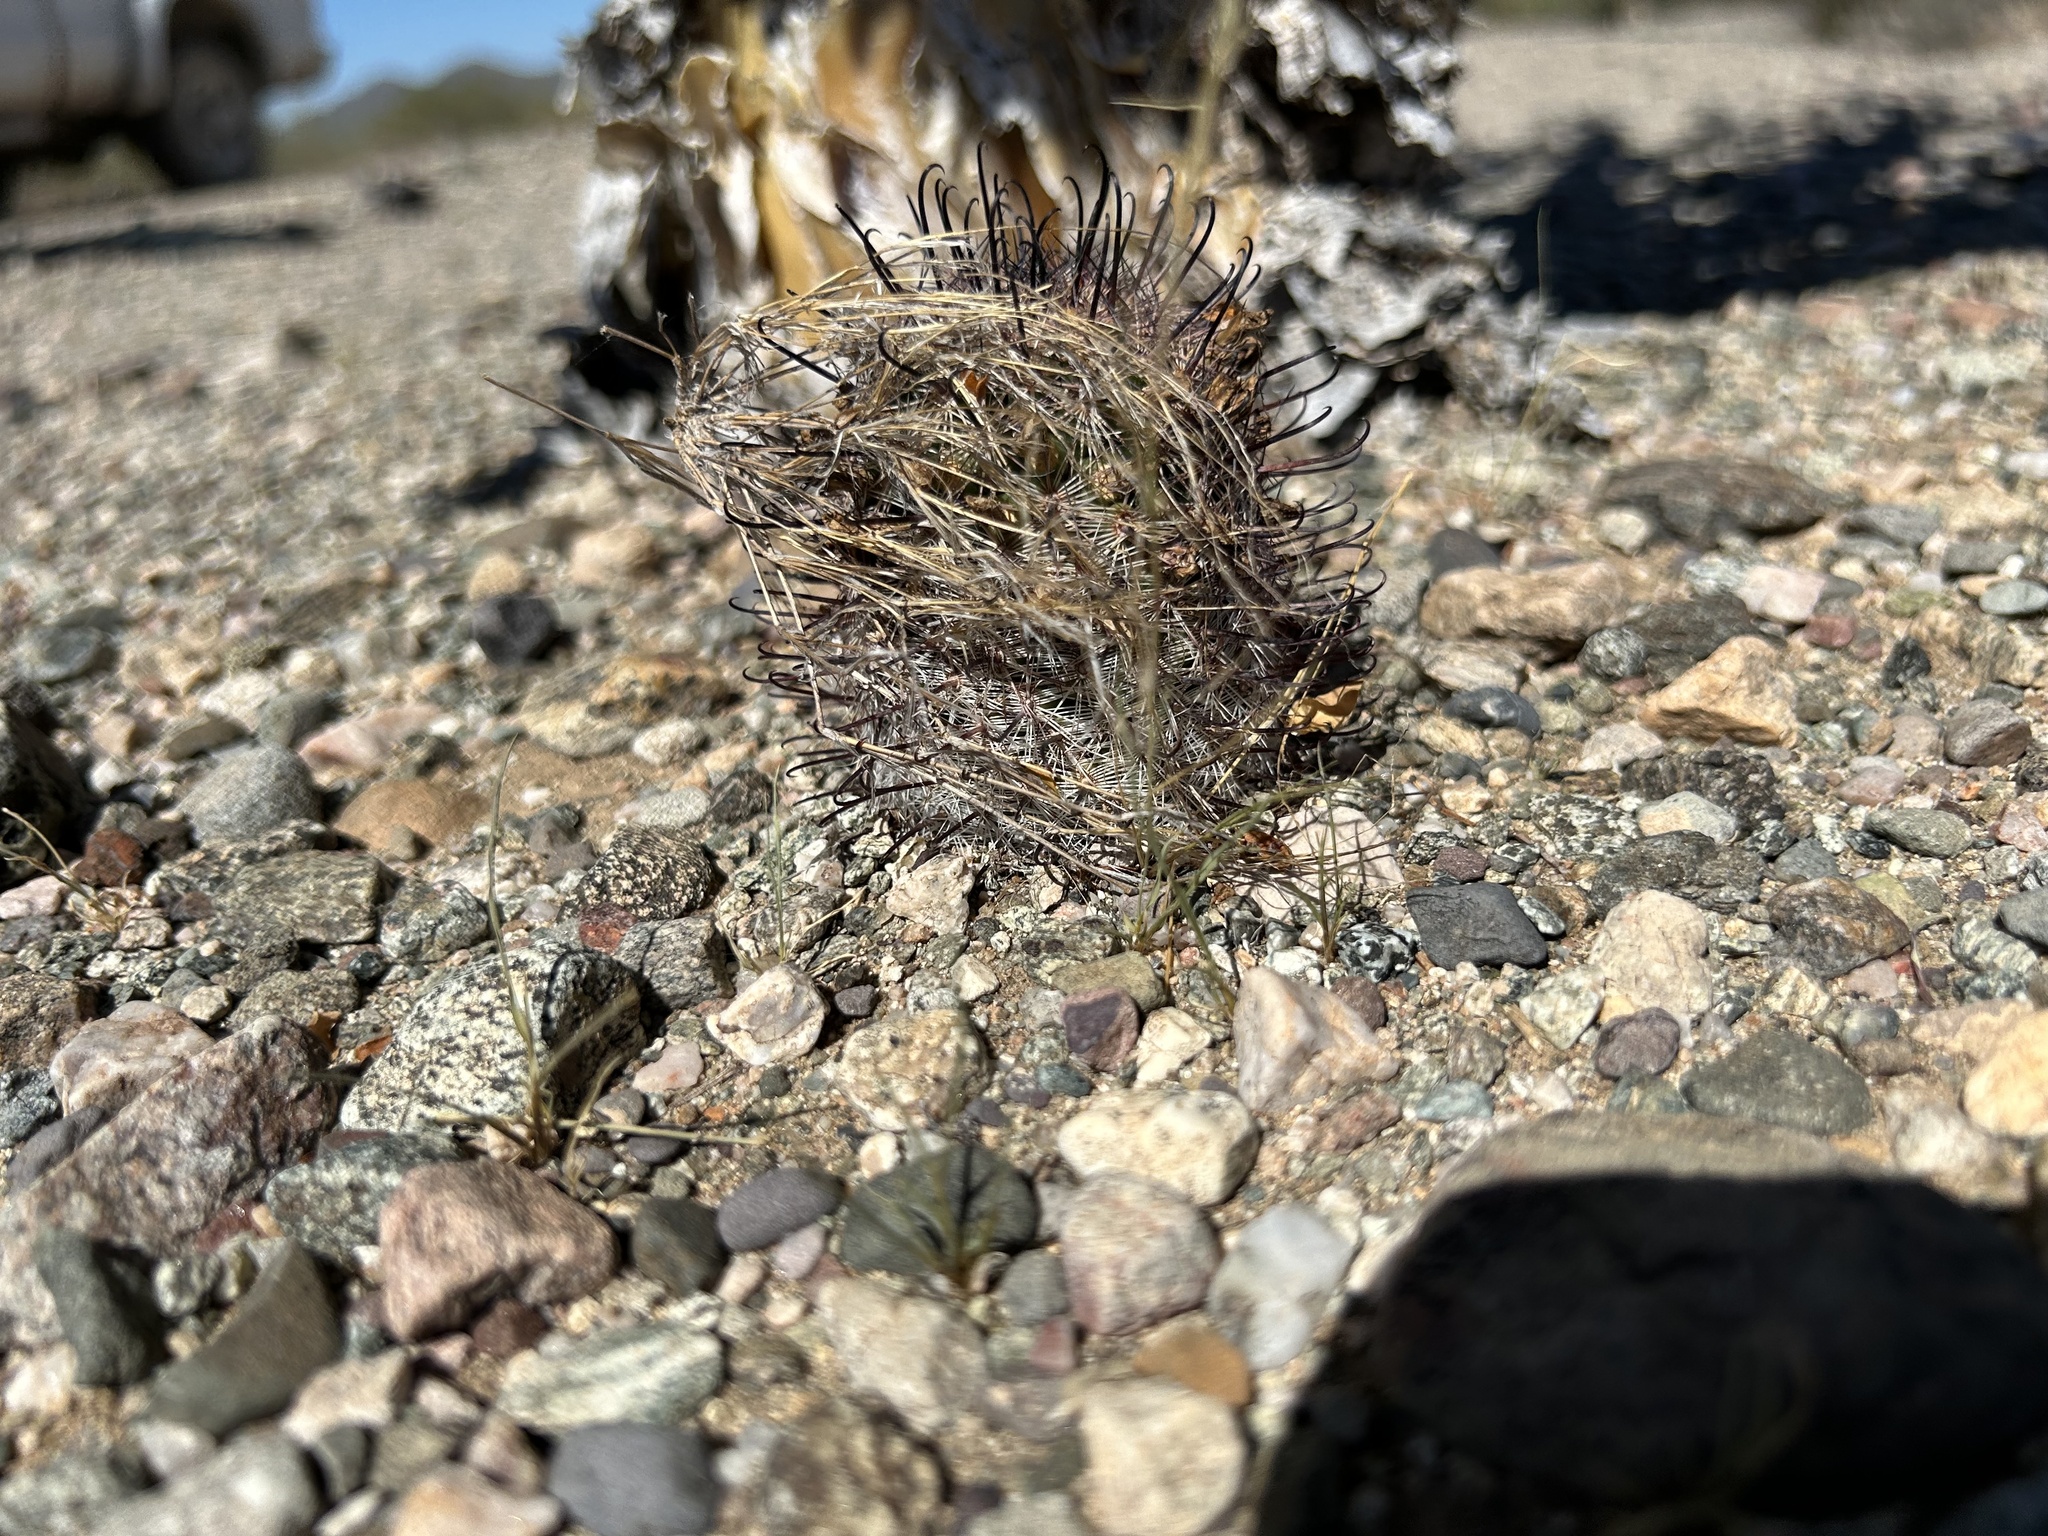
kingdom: Plantae
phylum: Tracheophyta
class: Magnoliopsida
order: Caryophyllales
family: Cactaceae
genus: Cochemiea
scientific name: Cochemiea grahamii
